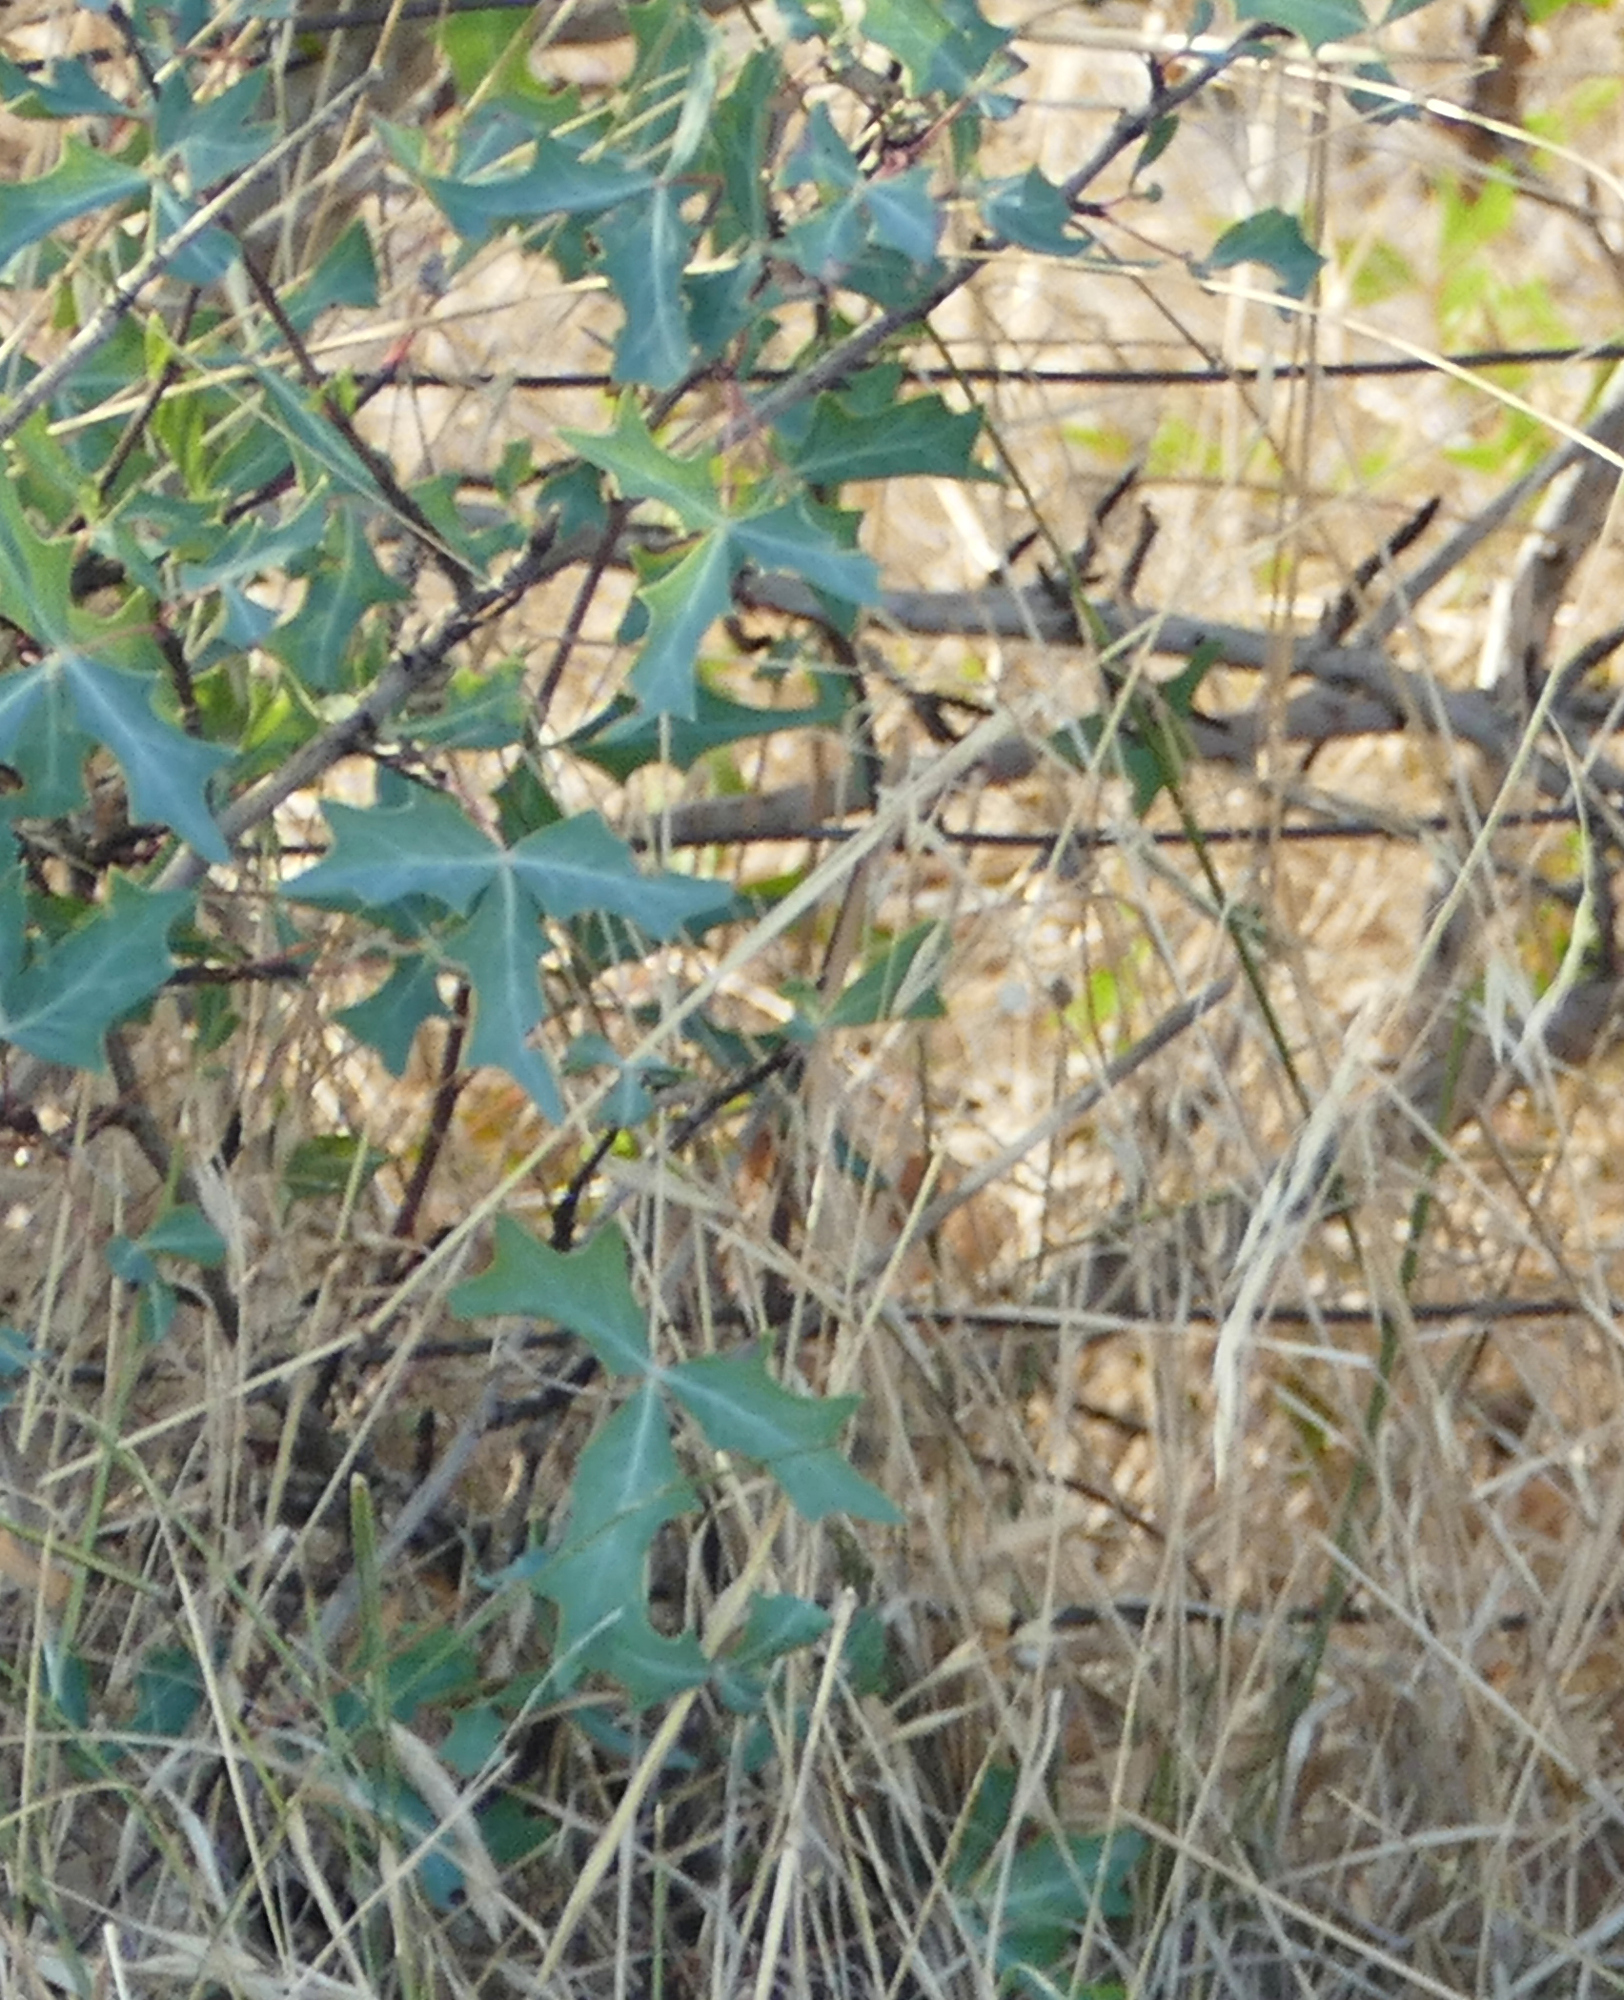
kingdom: Plantae
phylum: Tracheophyta
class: Magnoliopsida
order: Ranunculales
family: Berberidaceae
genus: Alloberberis
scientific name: Alloberberis trifoliolata
